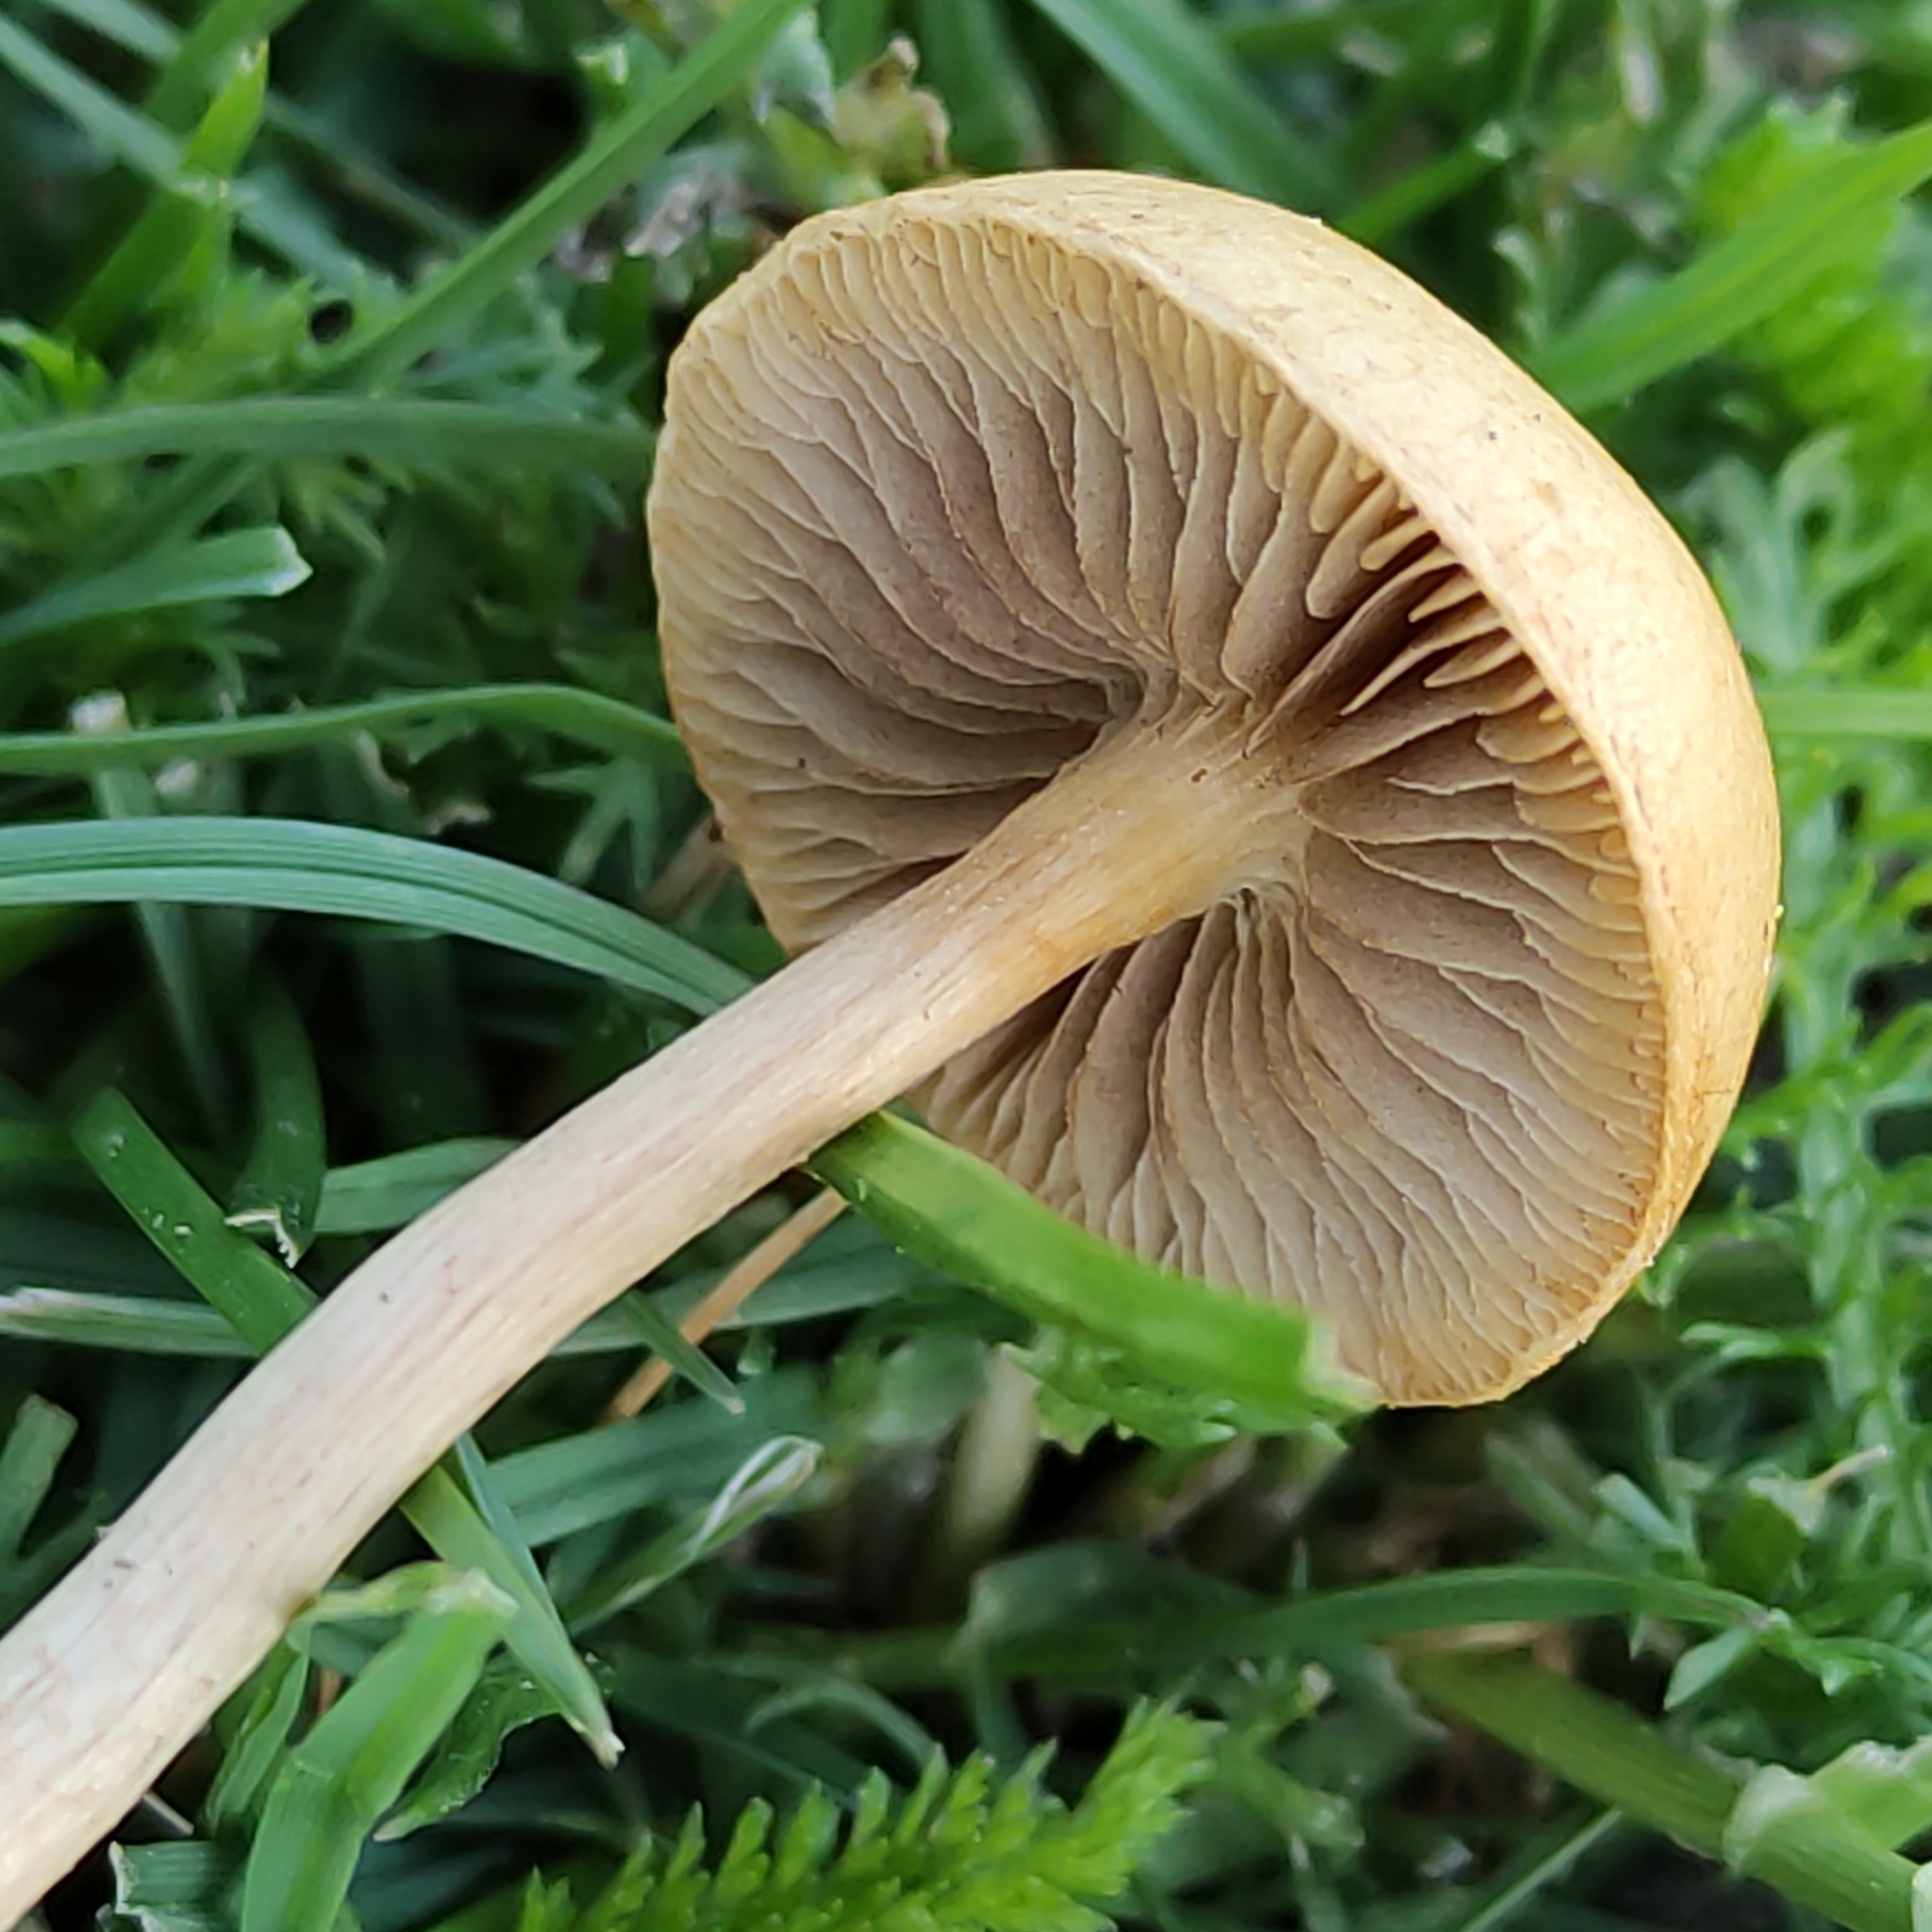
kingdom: Fungi
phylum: Basidiomycota
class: Agaricomycetes
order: Agaricales
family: Strophariaceae
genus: Agrocybe
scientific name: Agrocybe pediades
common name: Common fieldcap
